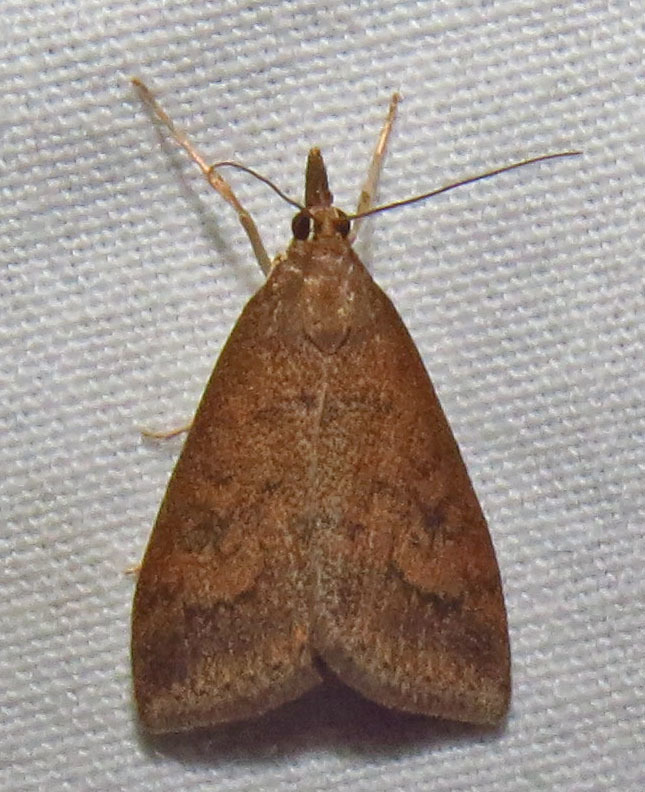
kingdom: Animalia
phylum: Arthropoda
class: Insecta
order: Lepidoptera
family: Crambidae
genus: Udea
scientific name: Udea rubigalis
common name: Celery leaftier moth
